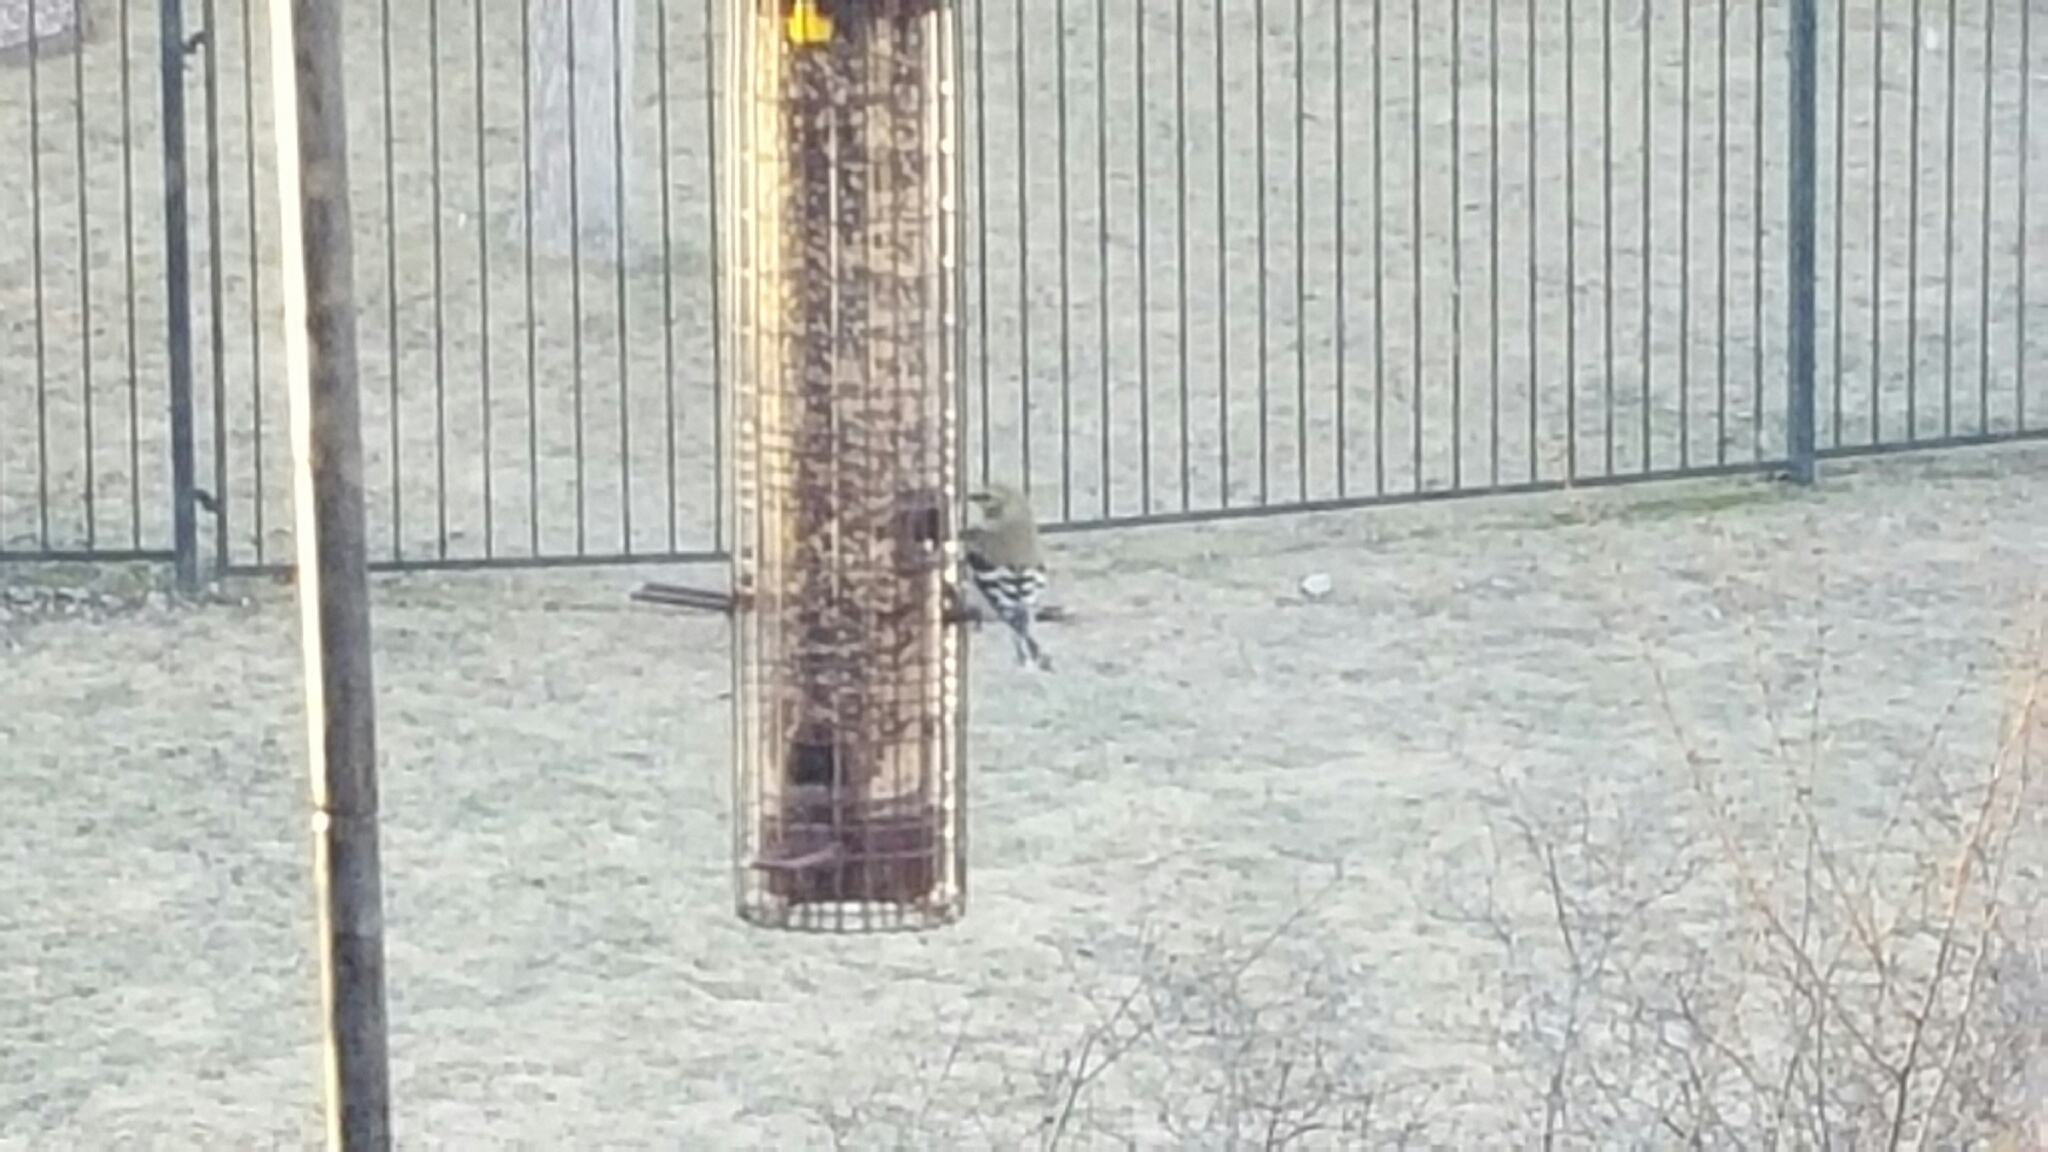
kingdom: Animalia
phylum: Chordata
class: Aves
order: Passeriformes
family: Fringillidae
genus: Spinus
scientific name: Spinus tristis
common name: American goldfinch
